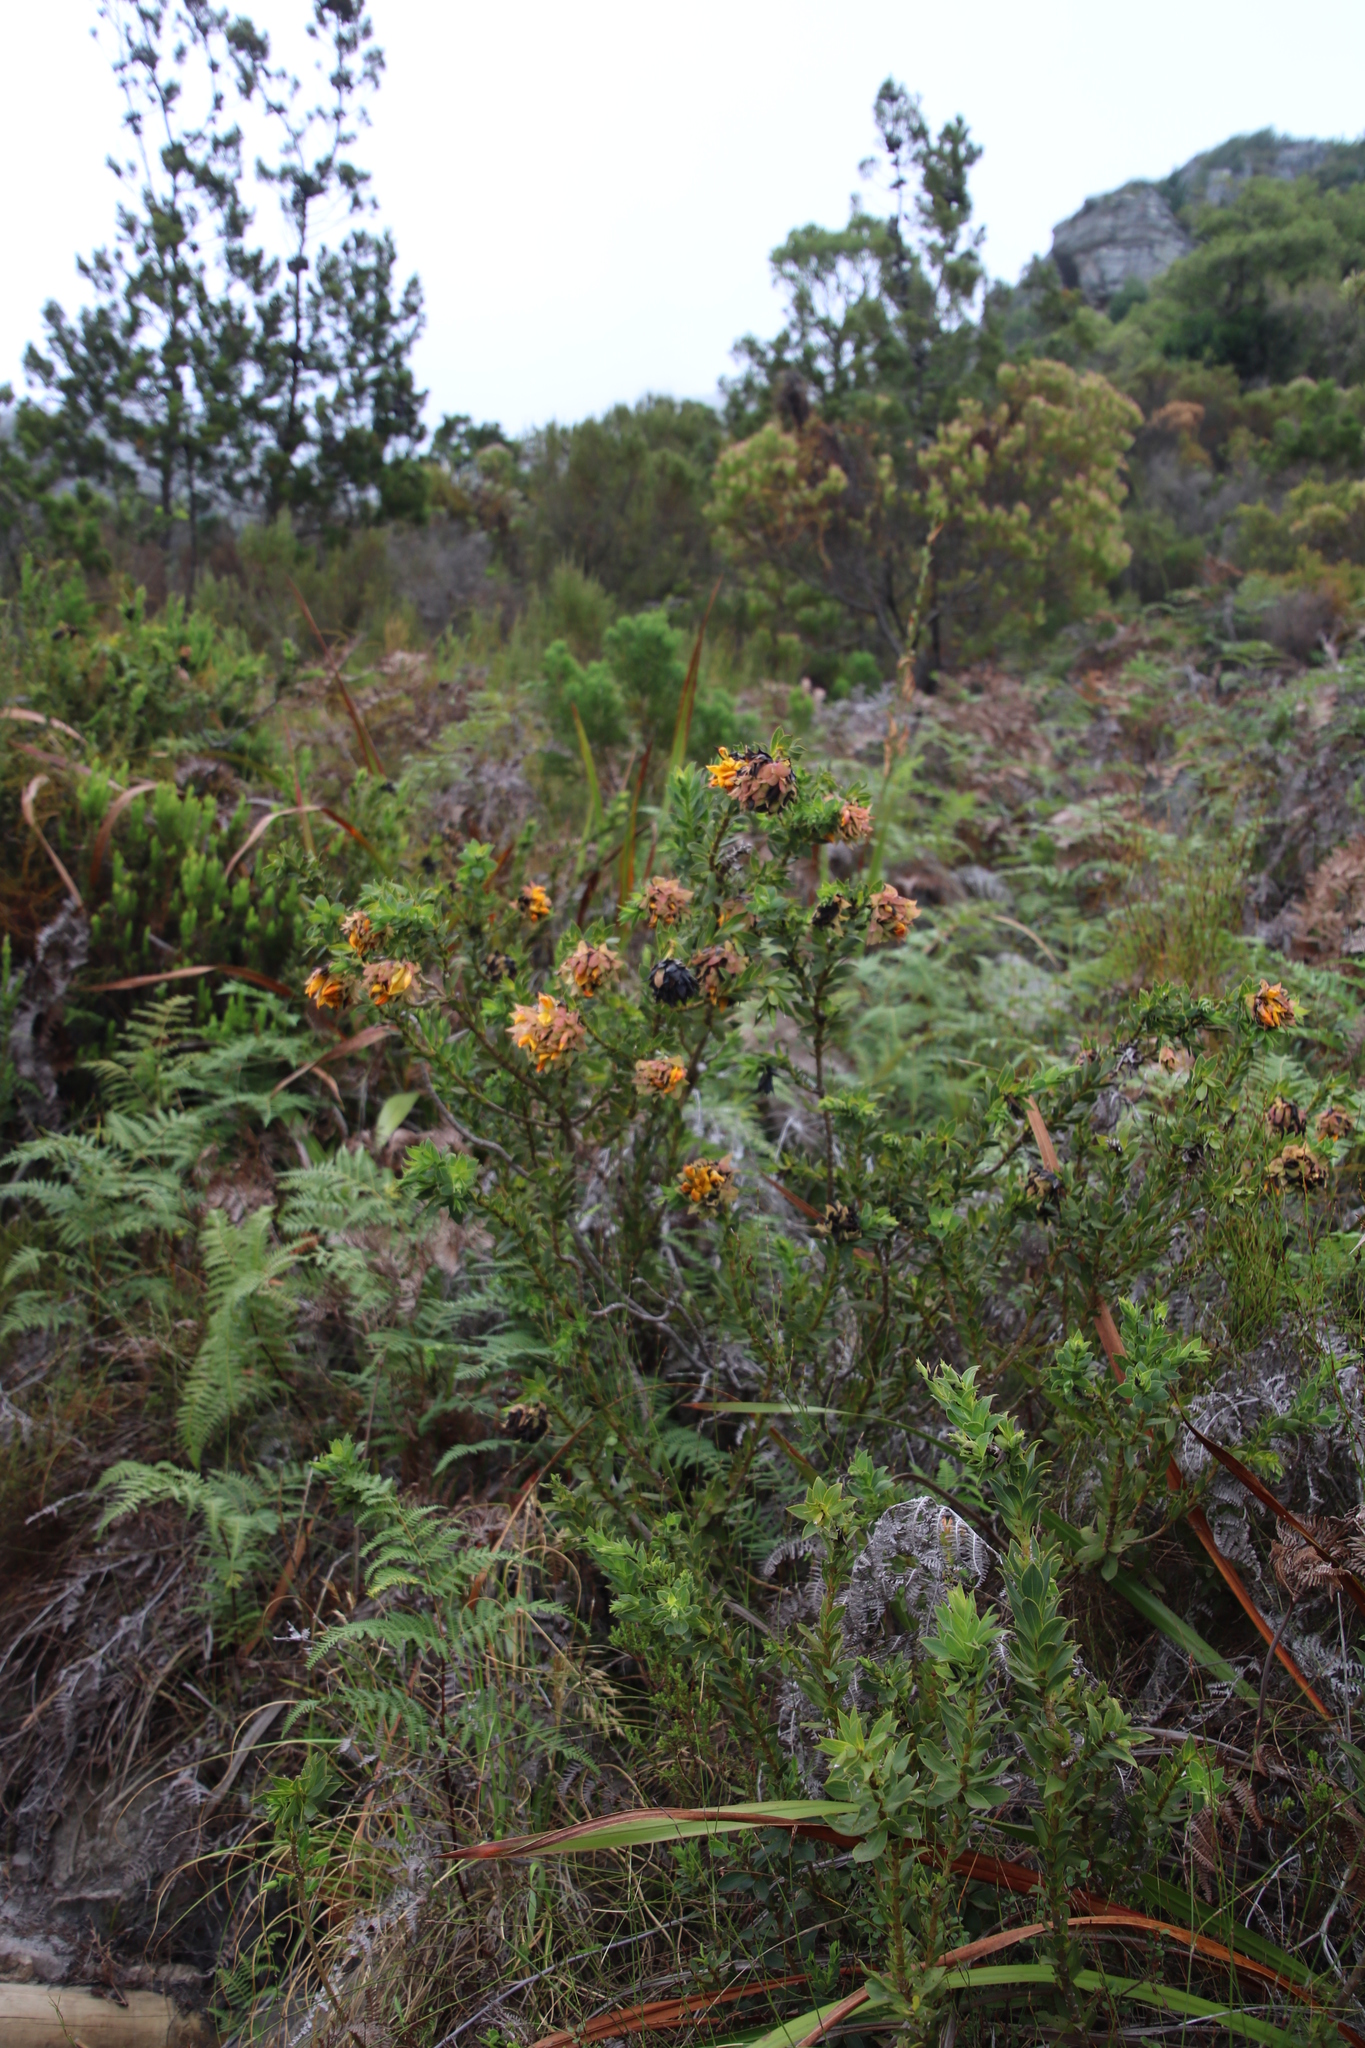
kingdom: Plantae
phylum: Tracheophyta
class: Magnoliopsida
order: Fabales
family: Fabaceae
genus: Liparia
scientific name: Liparia splendens
